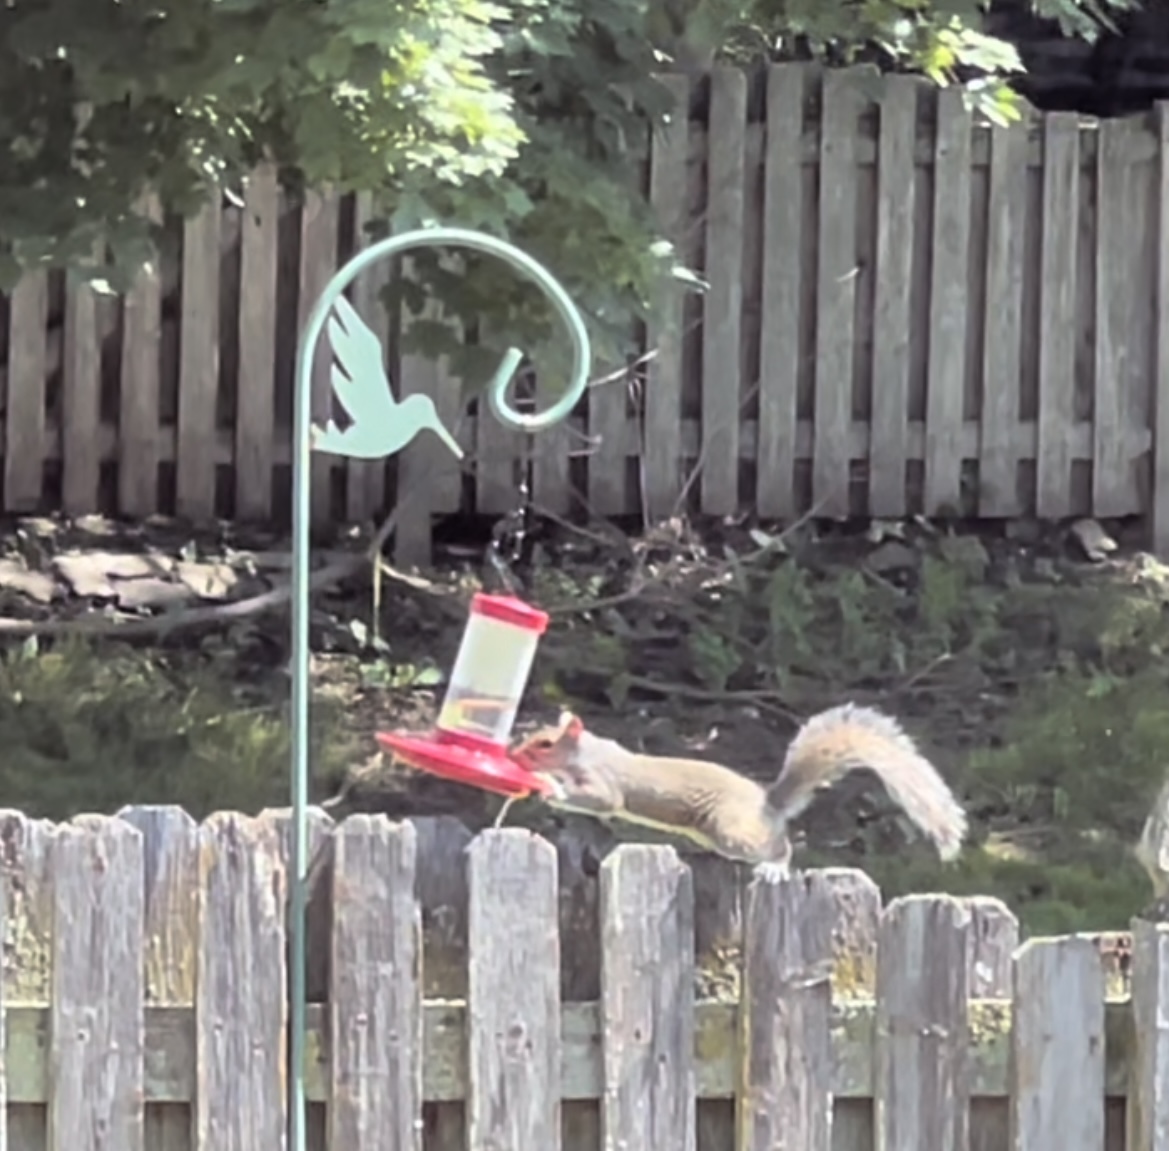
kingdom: Animalia
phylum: Chordata
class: Mammalia
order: Rodentia
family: Sciuridae
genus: Sciurus
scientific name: Sciurus carolinensis
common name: Eastern gray squirrel
